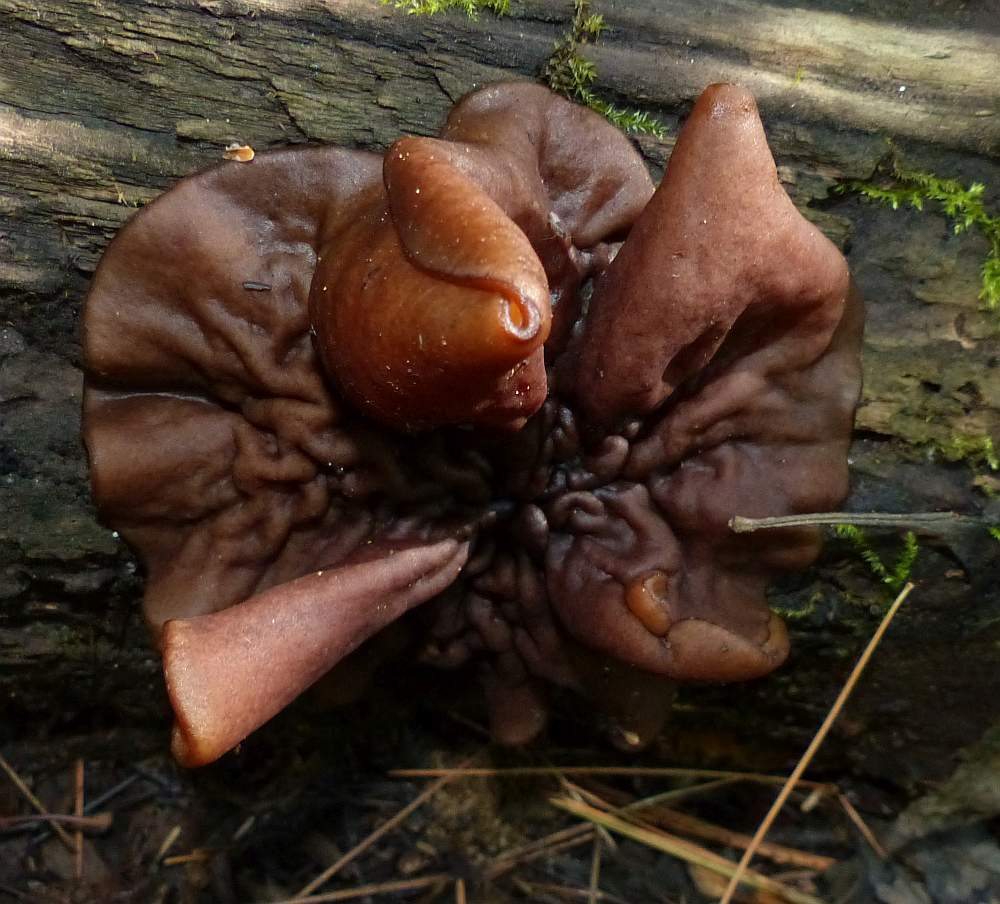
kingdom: Fungi
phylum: Ascomycota
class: Pezizomycetes
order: Pezizales
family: Pezizaceae
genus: Pachyella
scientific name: Pachyella clypeata
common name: Copper penny fungus
